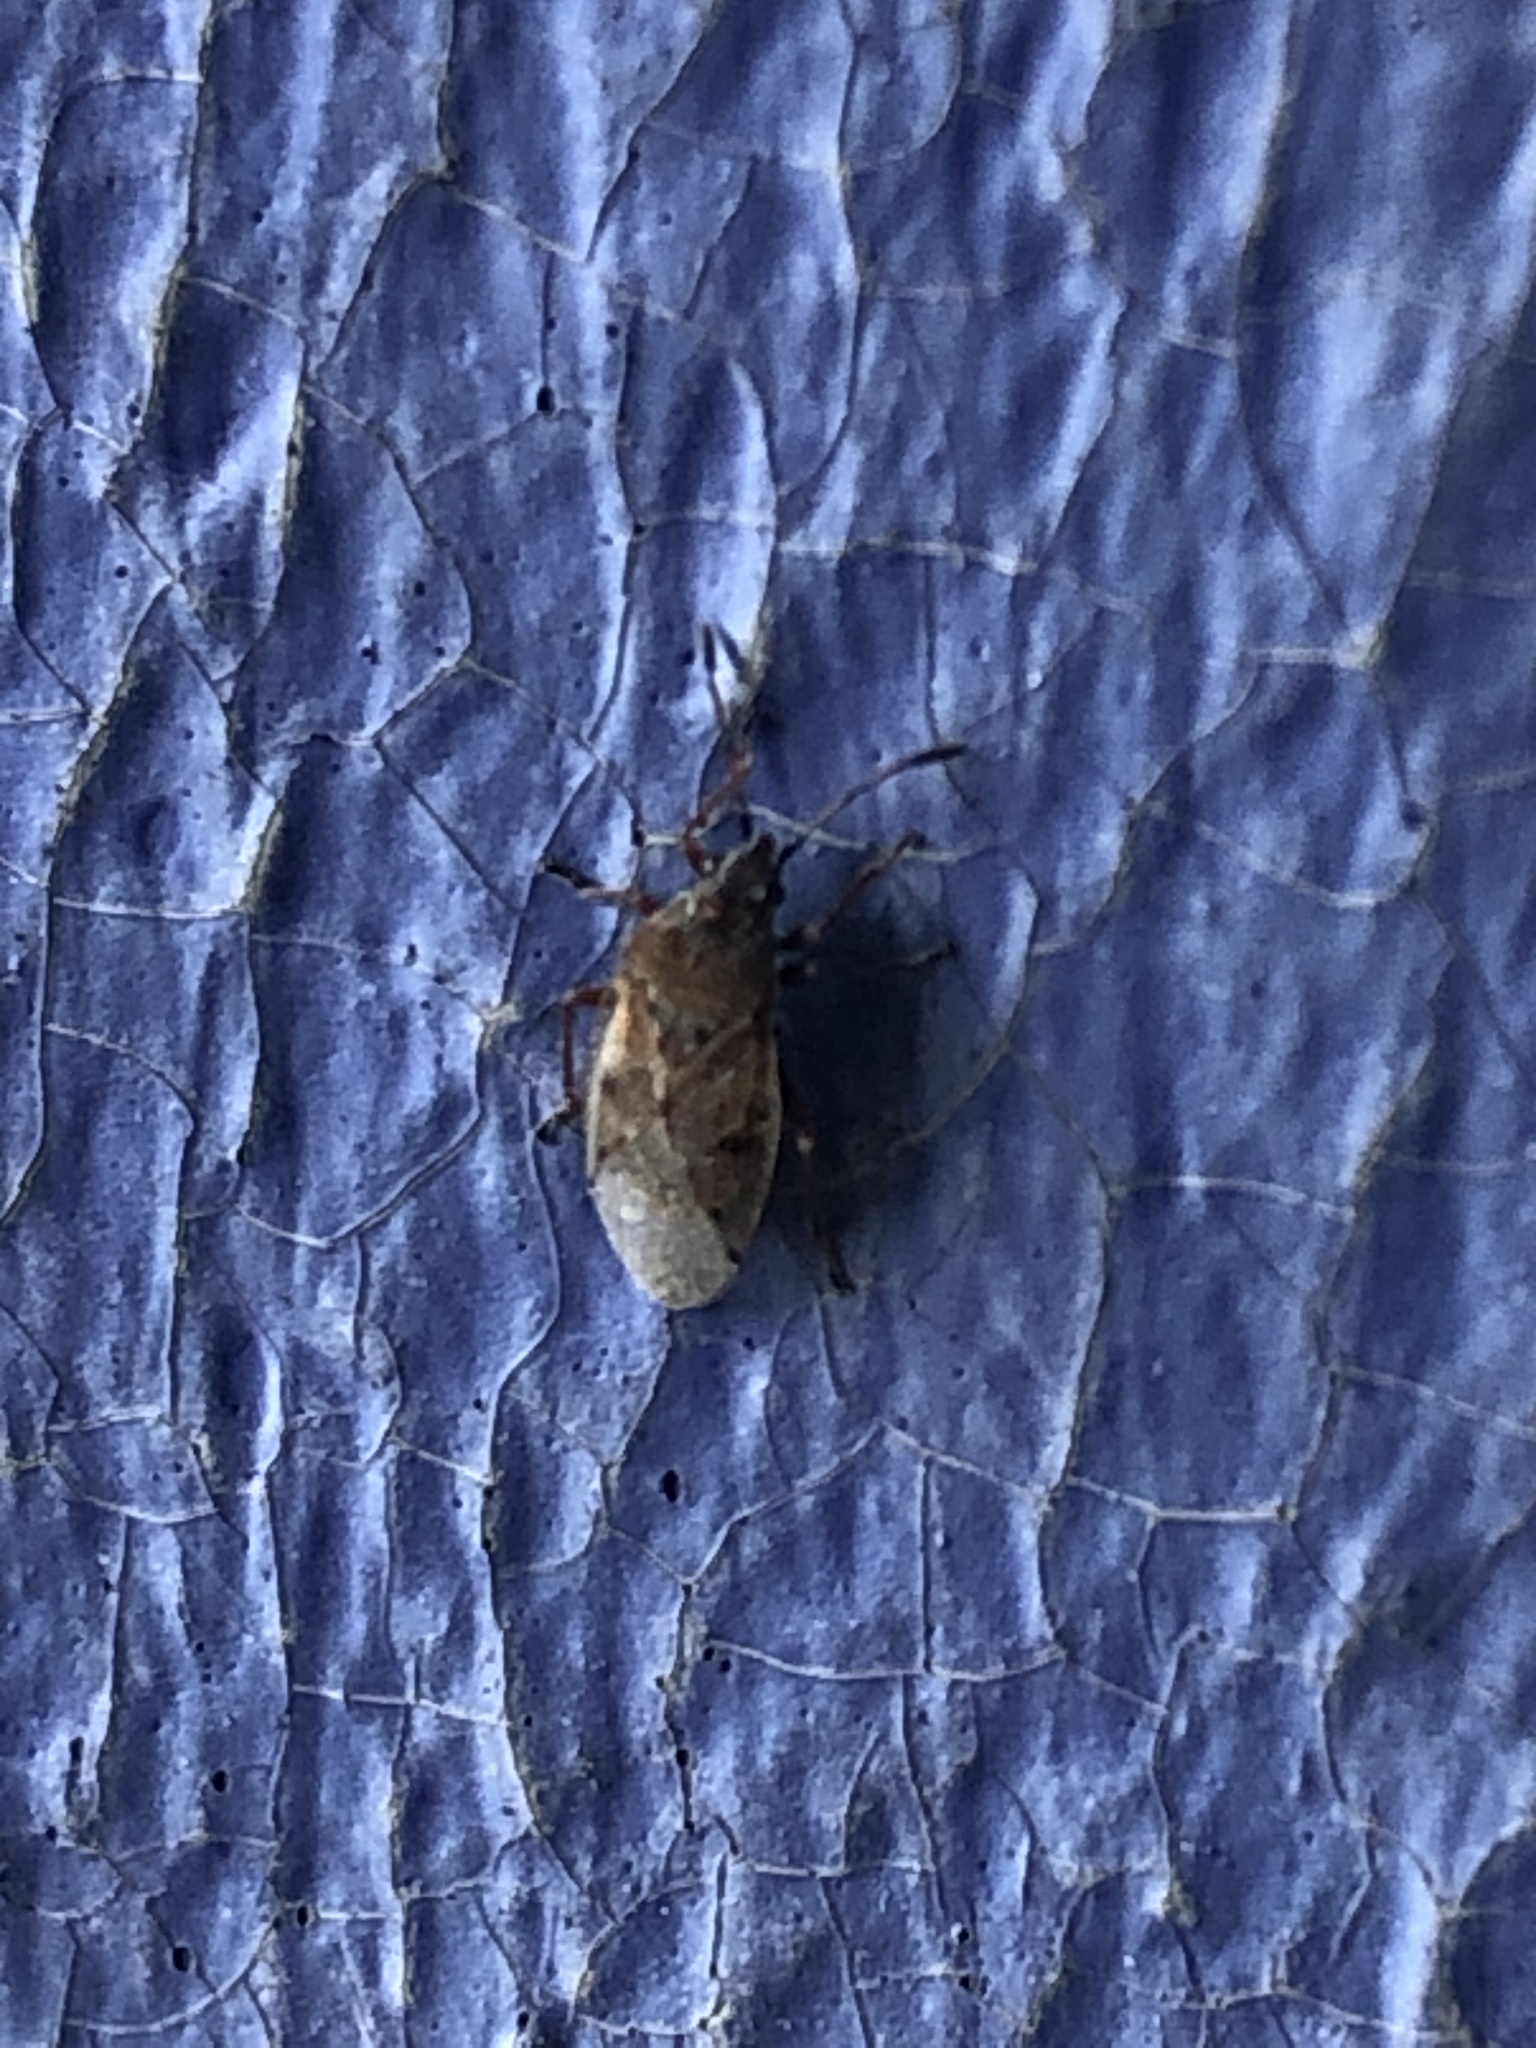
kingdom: Animalia
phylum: Arthropoda
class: Insecta
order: Hemiptera
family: Lygaeidae
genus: Kleidocerys
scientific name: Kleidocerys resedae
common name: Birch catkin bug
